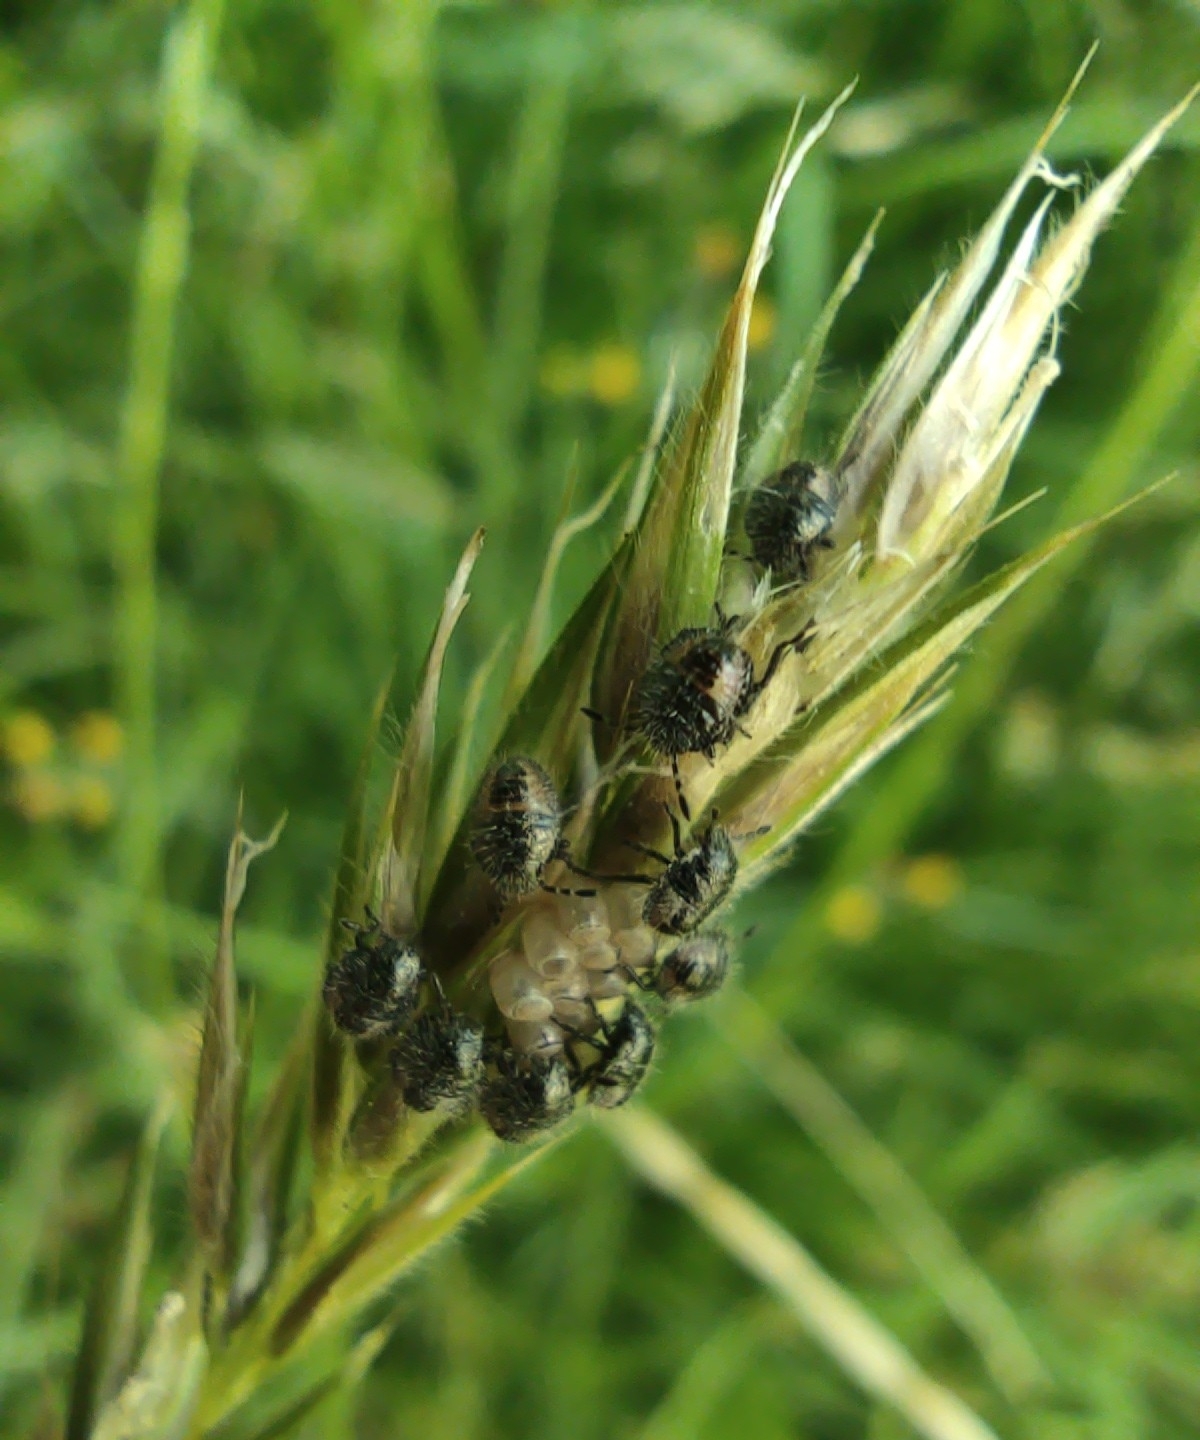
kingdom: Animalia
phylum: Arthropoda
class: Insecta
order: Hemiptera
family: Pentatomidae
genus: Dolycoris
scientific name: Dolycoris baccarum
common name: Sloe bug
